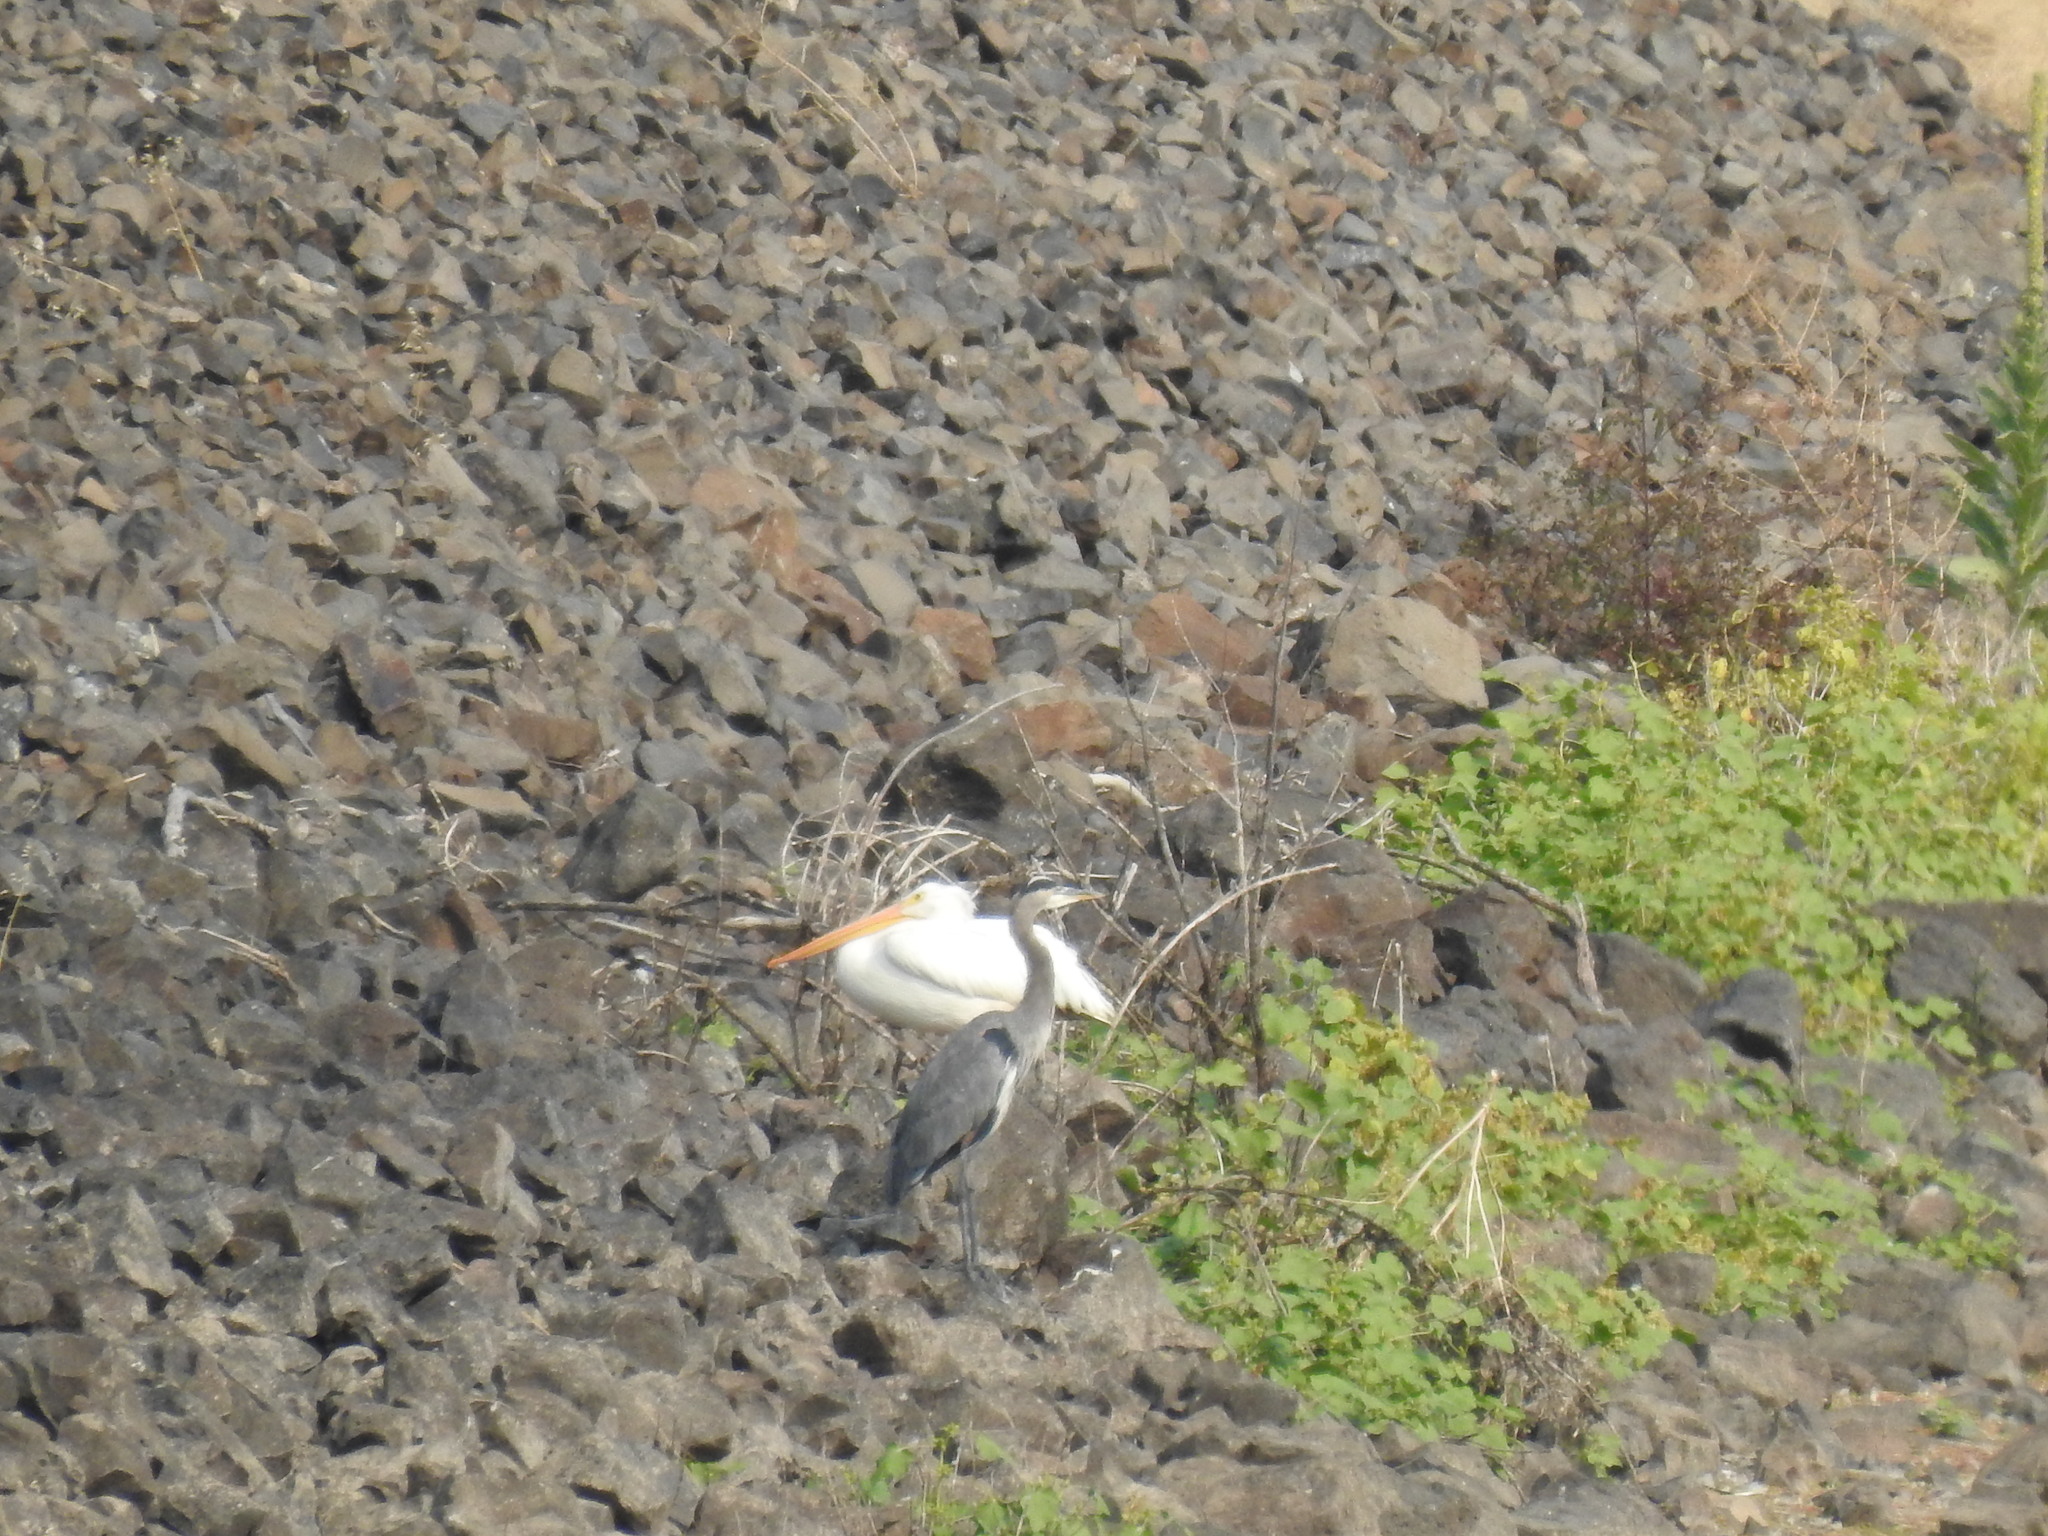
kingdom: Animalia
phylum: Chordata
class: Aves
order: Pelecaniformes
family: Ardeidae
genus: Ardea
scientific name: Ardea herodias
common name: Great blue heron
